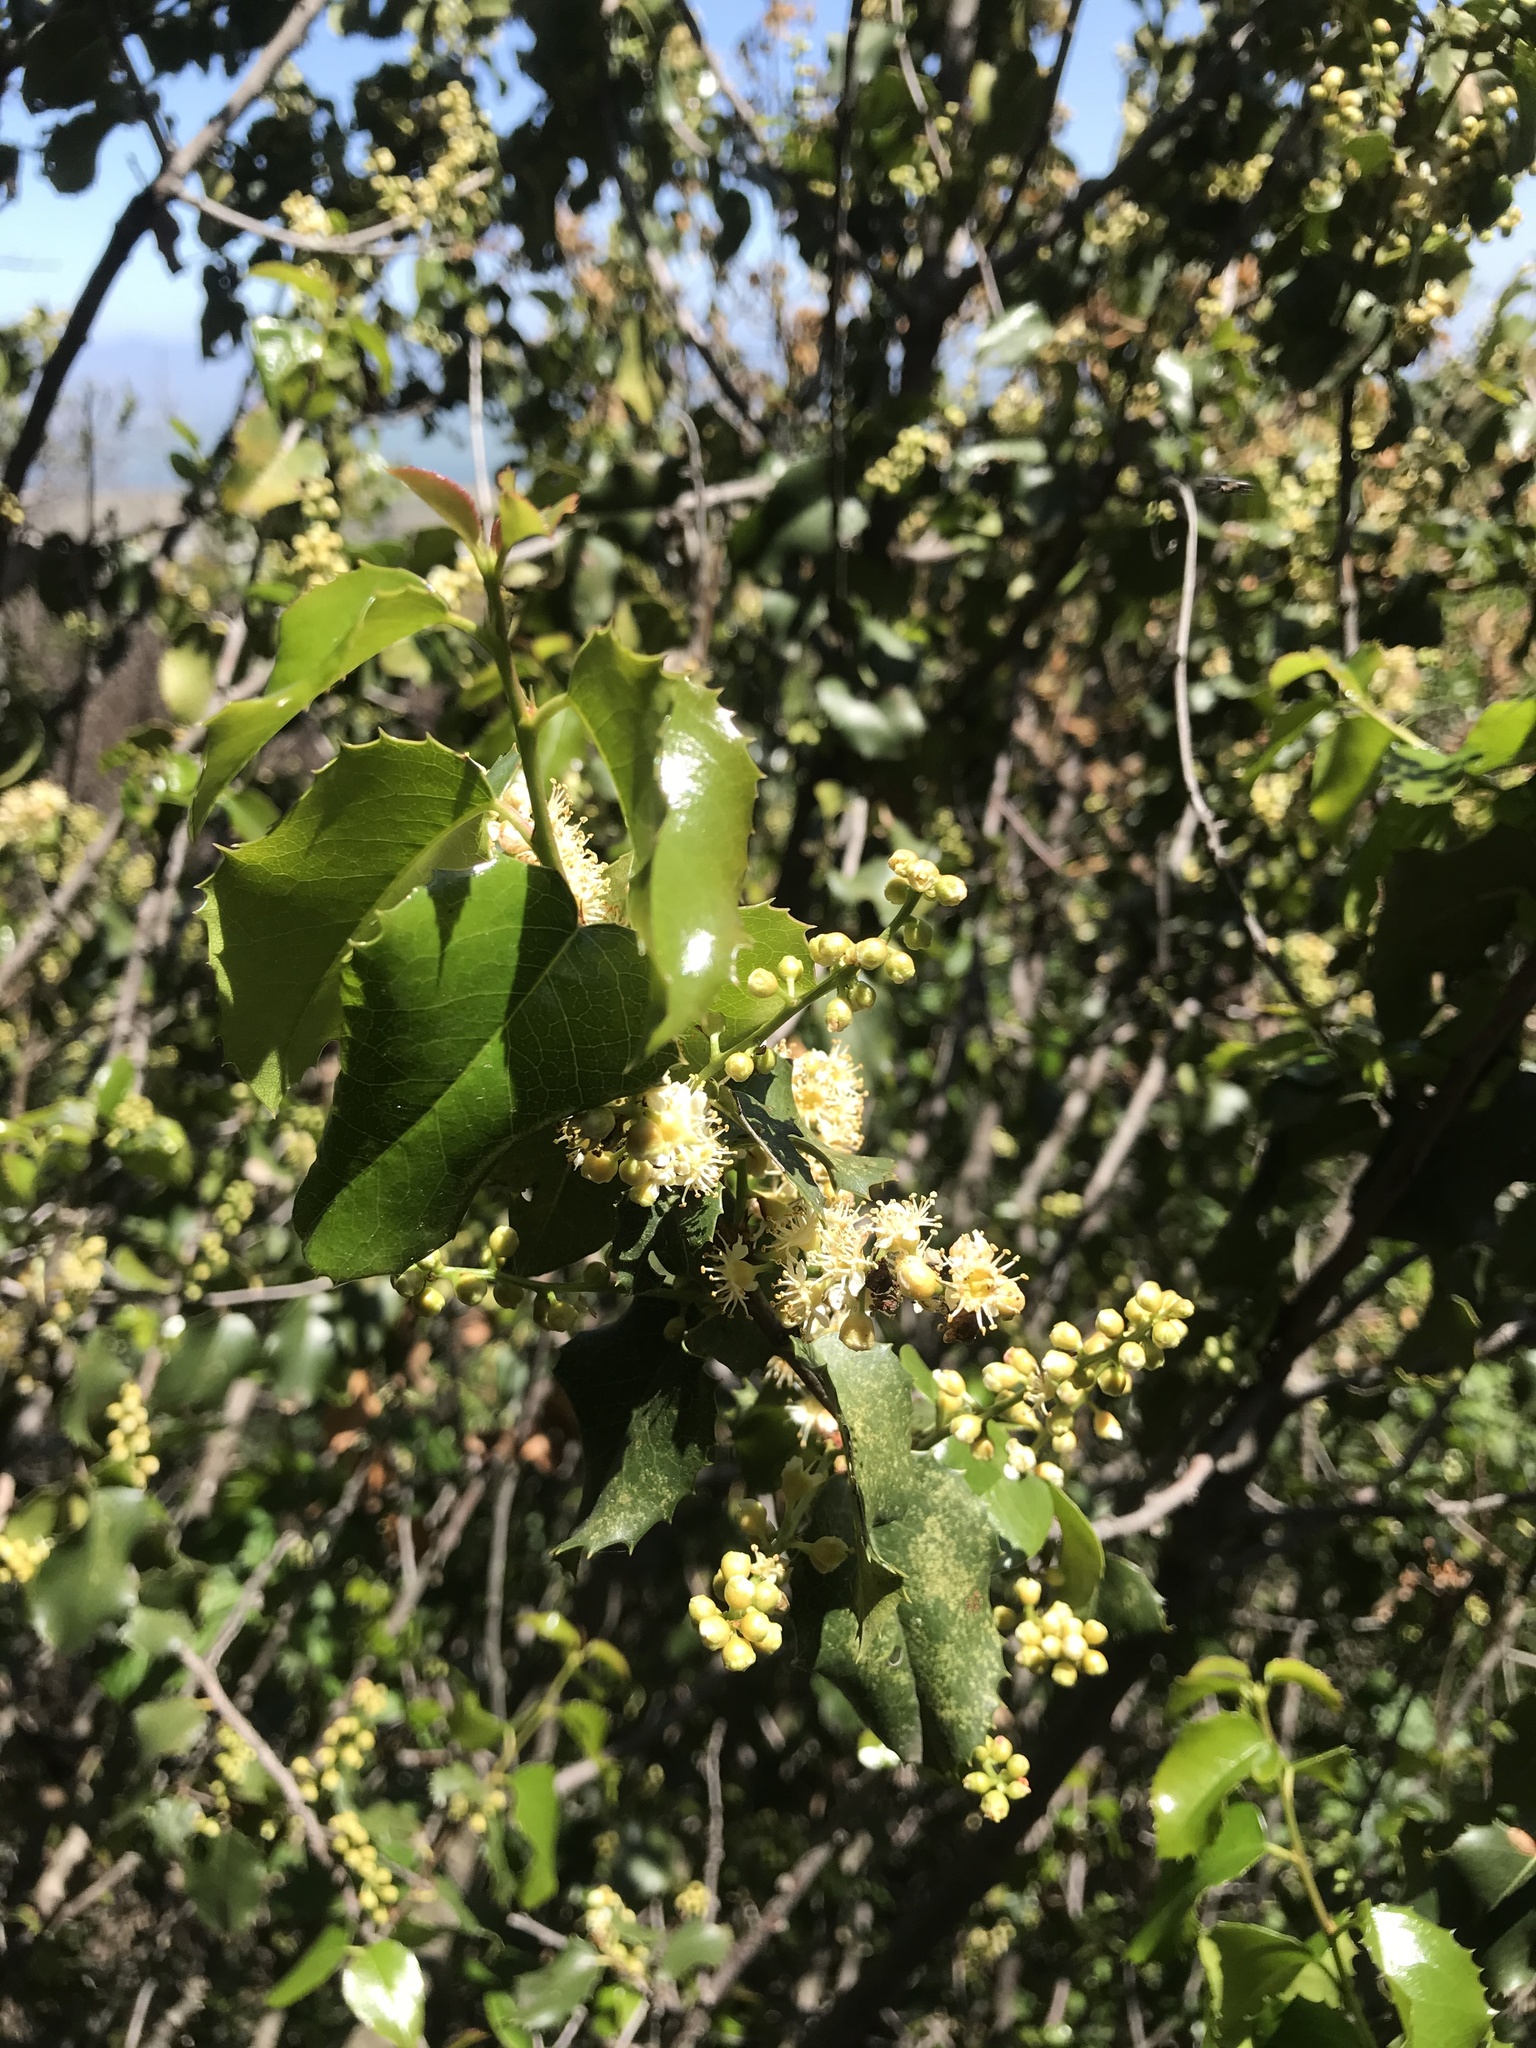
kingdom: Plantae
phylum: Tracheophyta
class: Magnoliopsida
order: Rosales
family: Rosaceae
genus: Prunus
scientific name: Prunus ilicifolia
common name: Hollyleaf cherry
